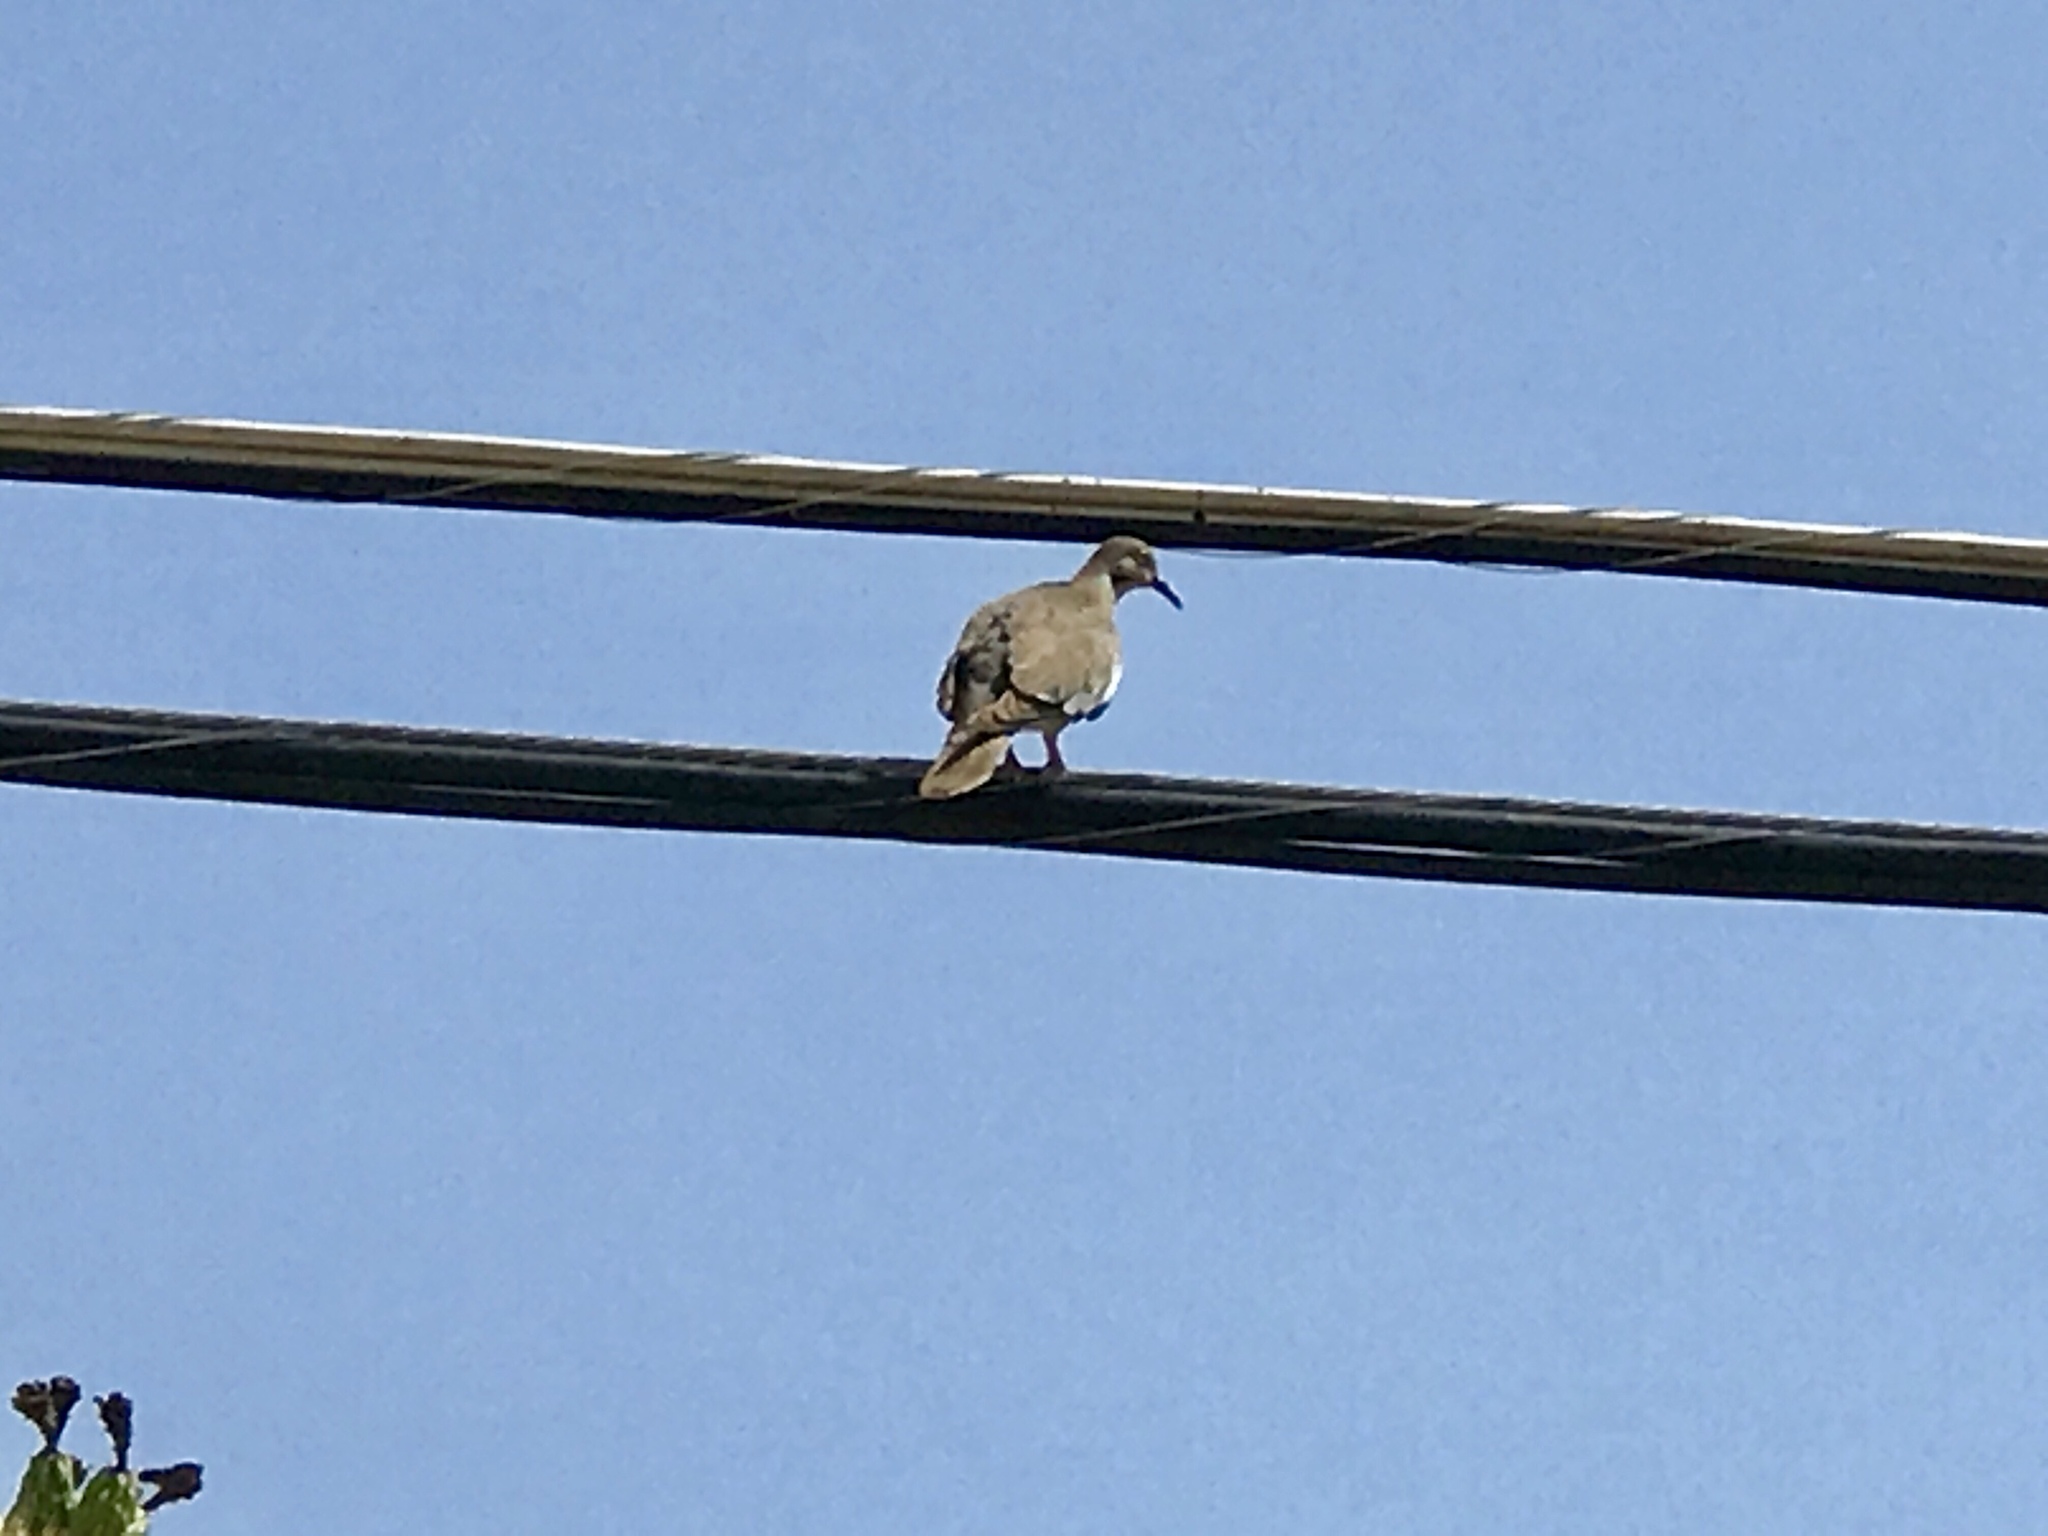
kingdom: Animalia
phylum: Chordata
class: Aves
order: Columbiformes
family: Columbidae
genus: Zenaida
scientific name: Zenaida asiatica
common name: White-winged dove
